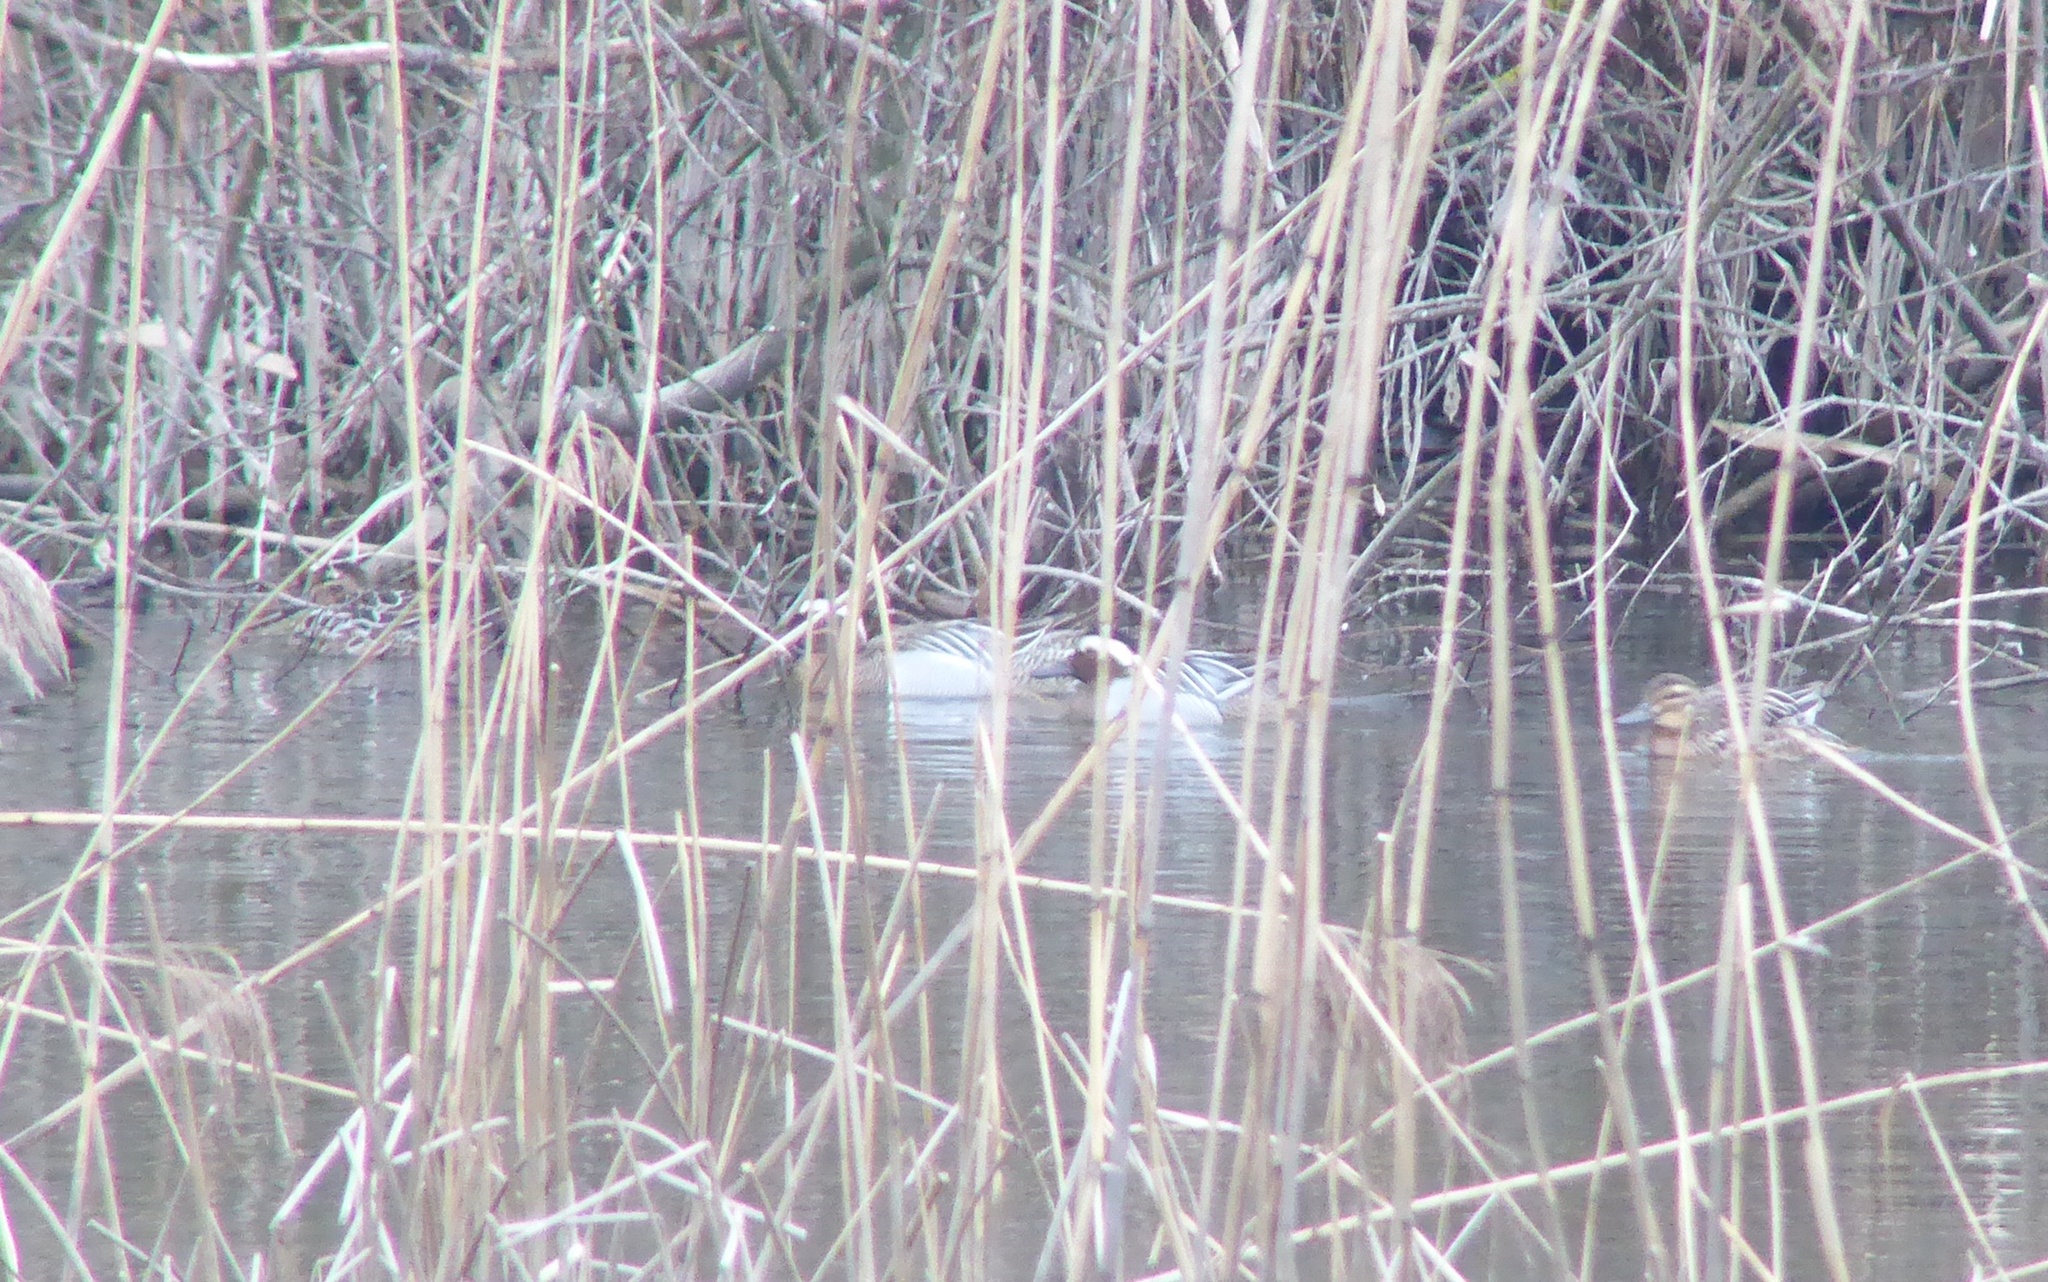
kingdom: Animalia
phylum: Chordata
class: Aves
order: Anseriformes
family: Anatidae
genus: Spatula
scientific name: Spatula querquedula
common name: Garganey
